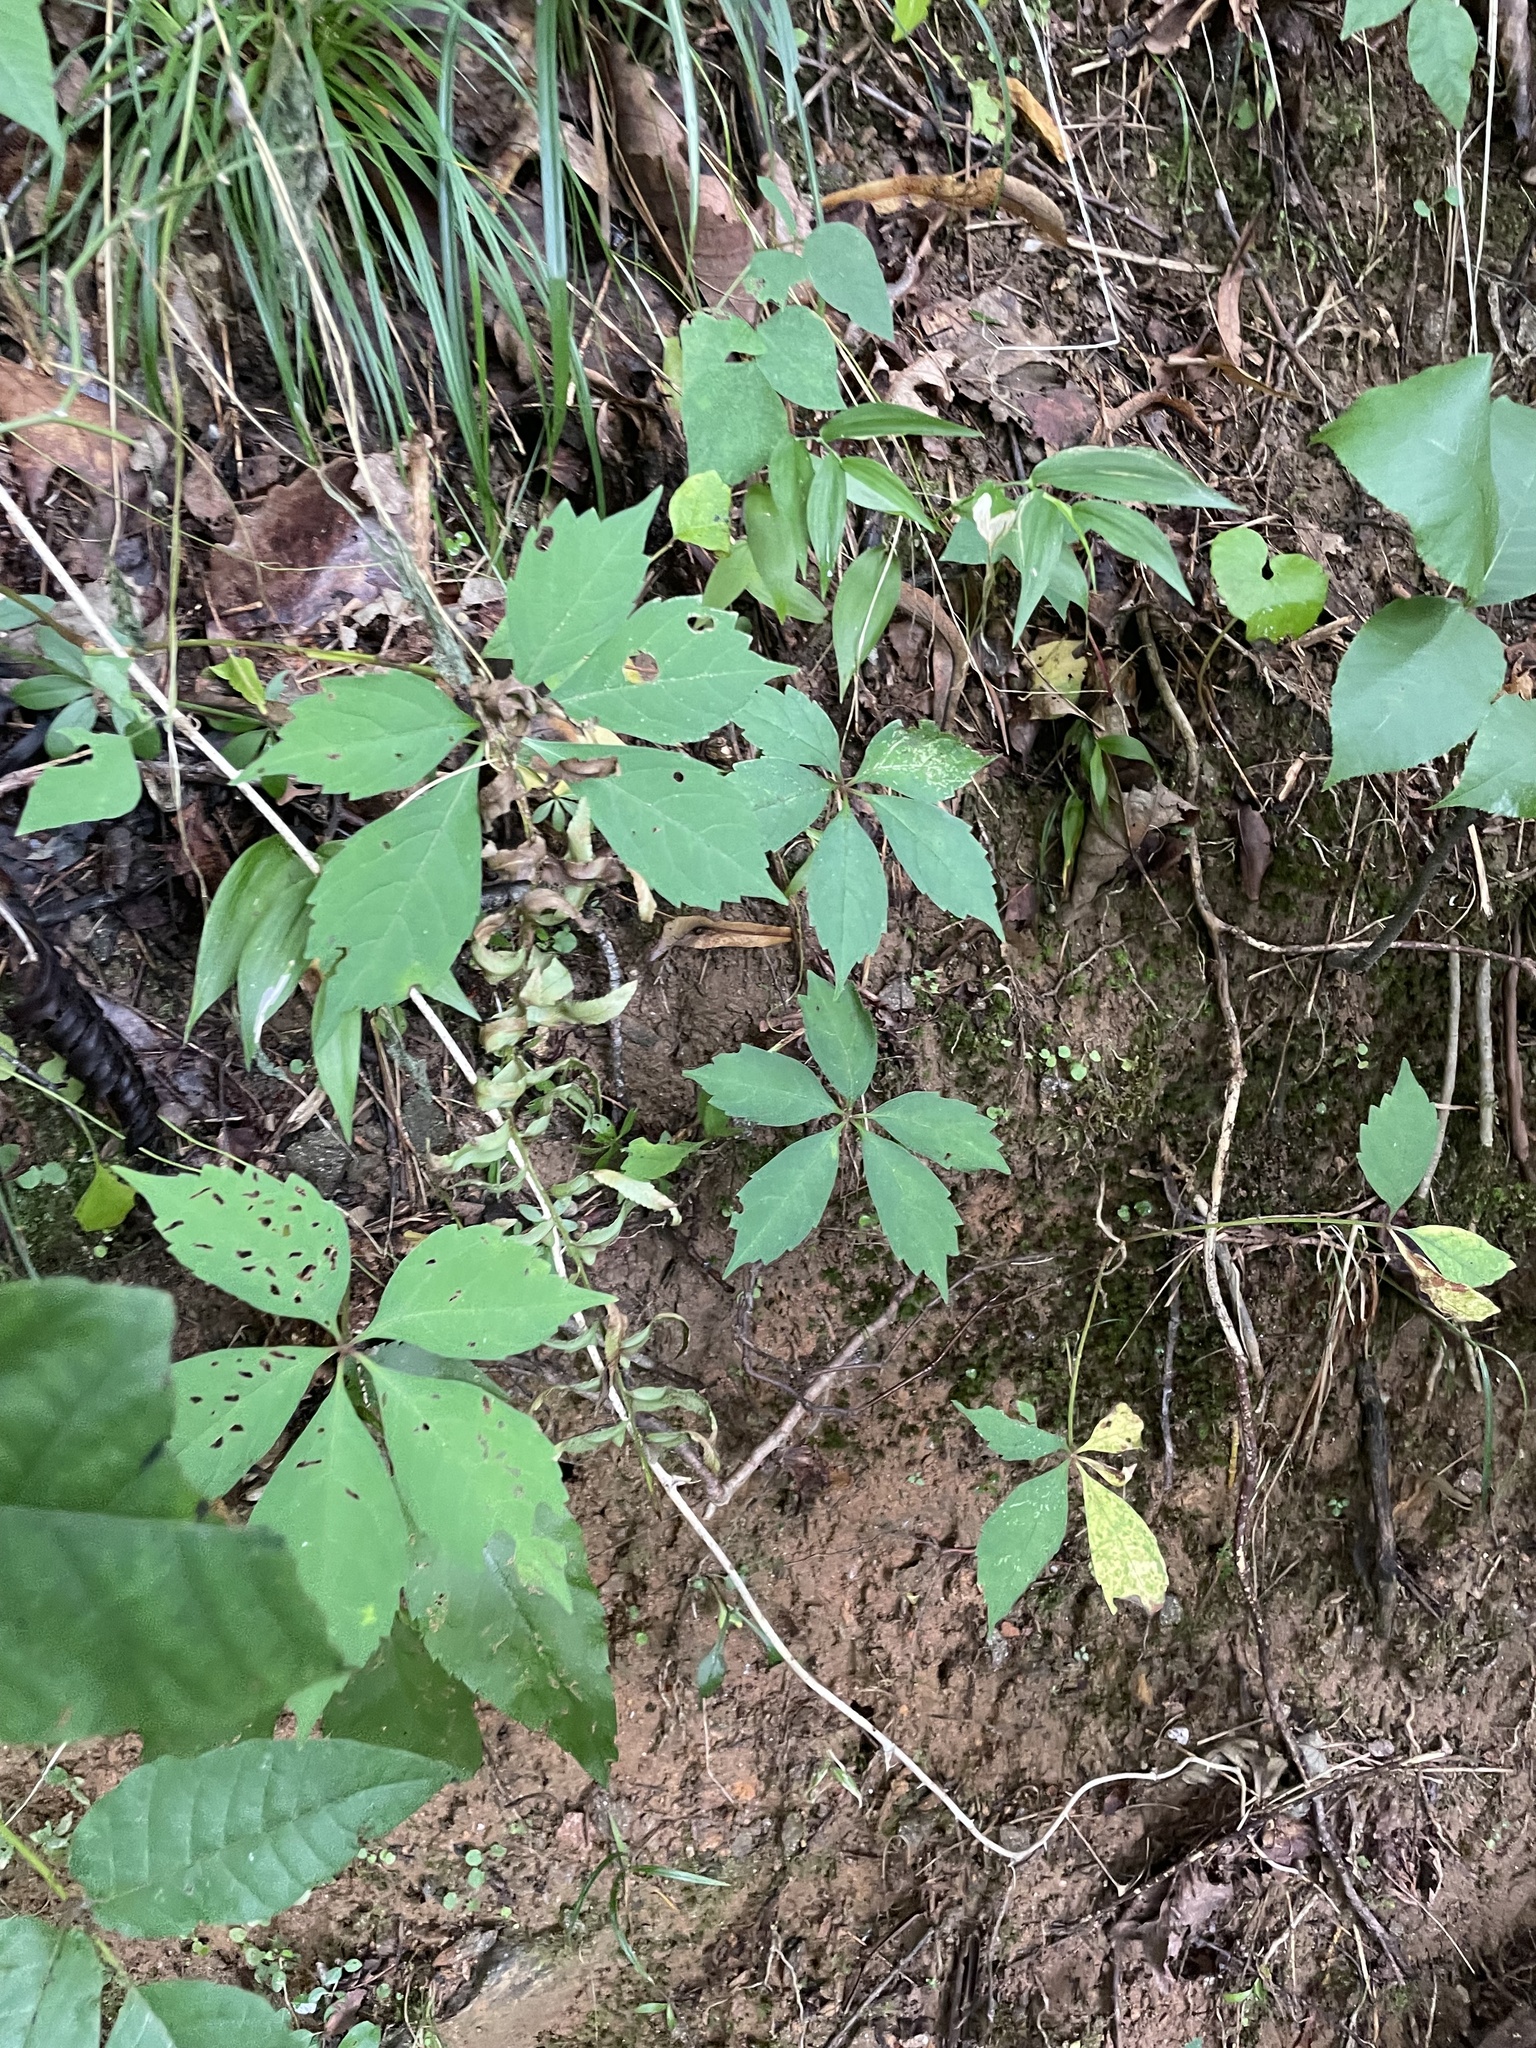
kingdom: Plantae
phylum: Tracheophyta
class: Magnoliopsida
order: Vitales
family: Vitaceae
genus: Parthenocissus
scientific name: Parthenocissus quinquefolia
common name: Virginia-creeper
